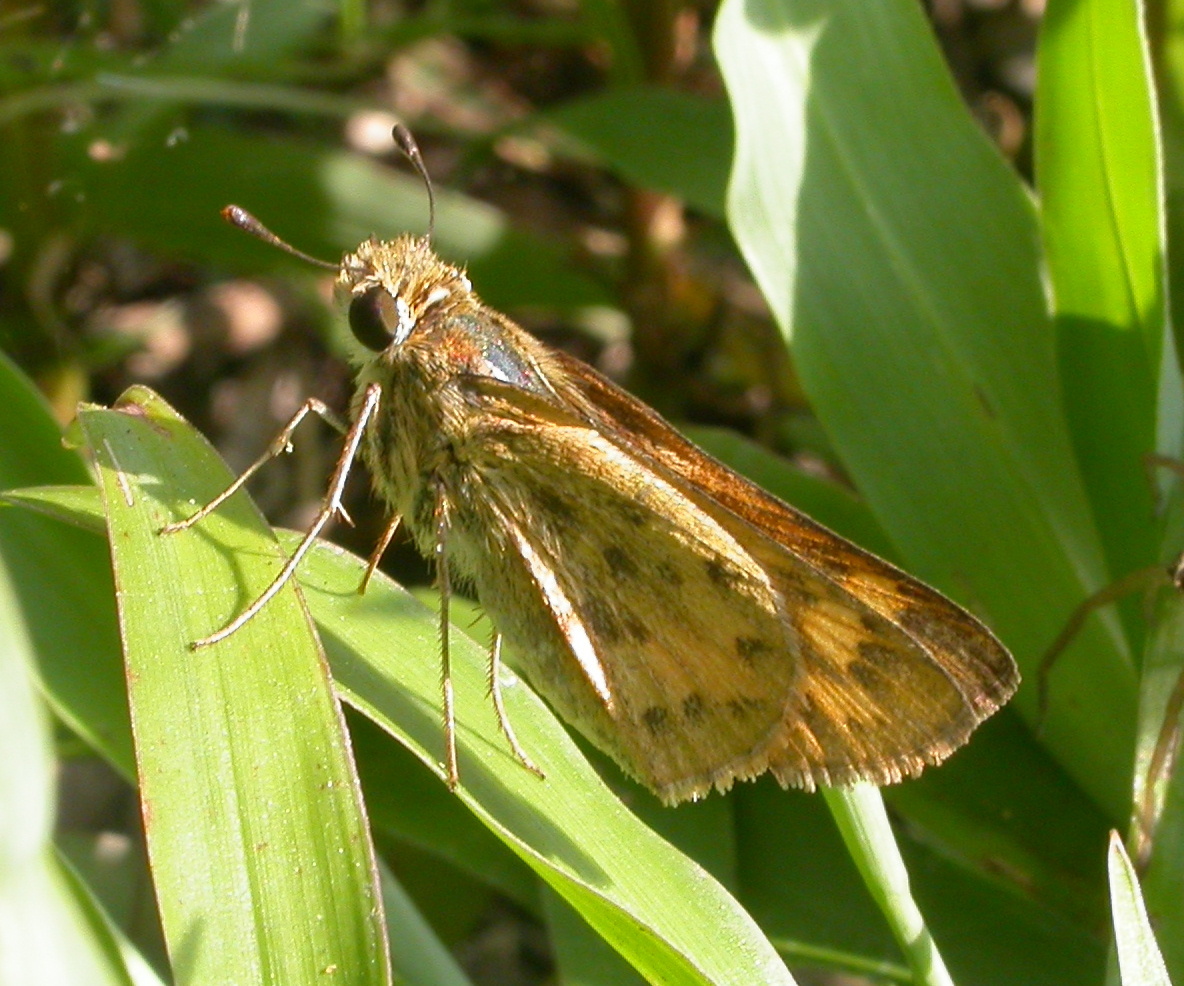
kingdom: Animalia
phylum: Arthropoda
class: Insecta
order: Lepidoptera
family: Hesperiidae
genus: Hylephila
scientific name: Hylephila phyleus
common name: Fiery skipper
